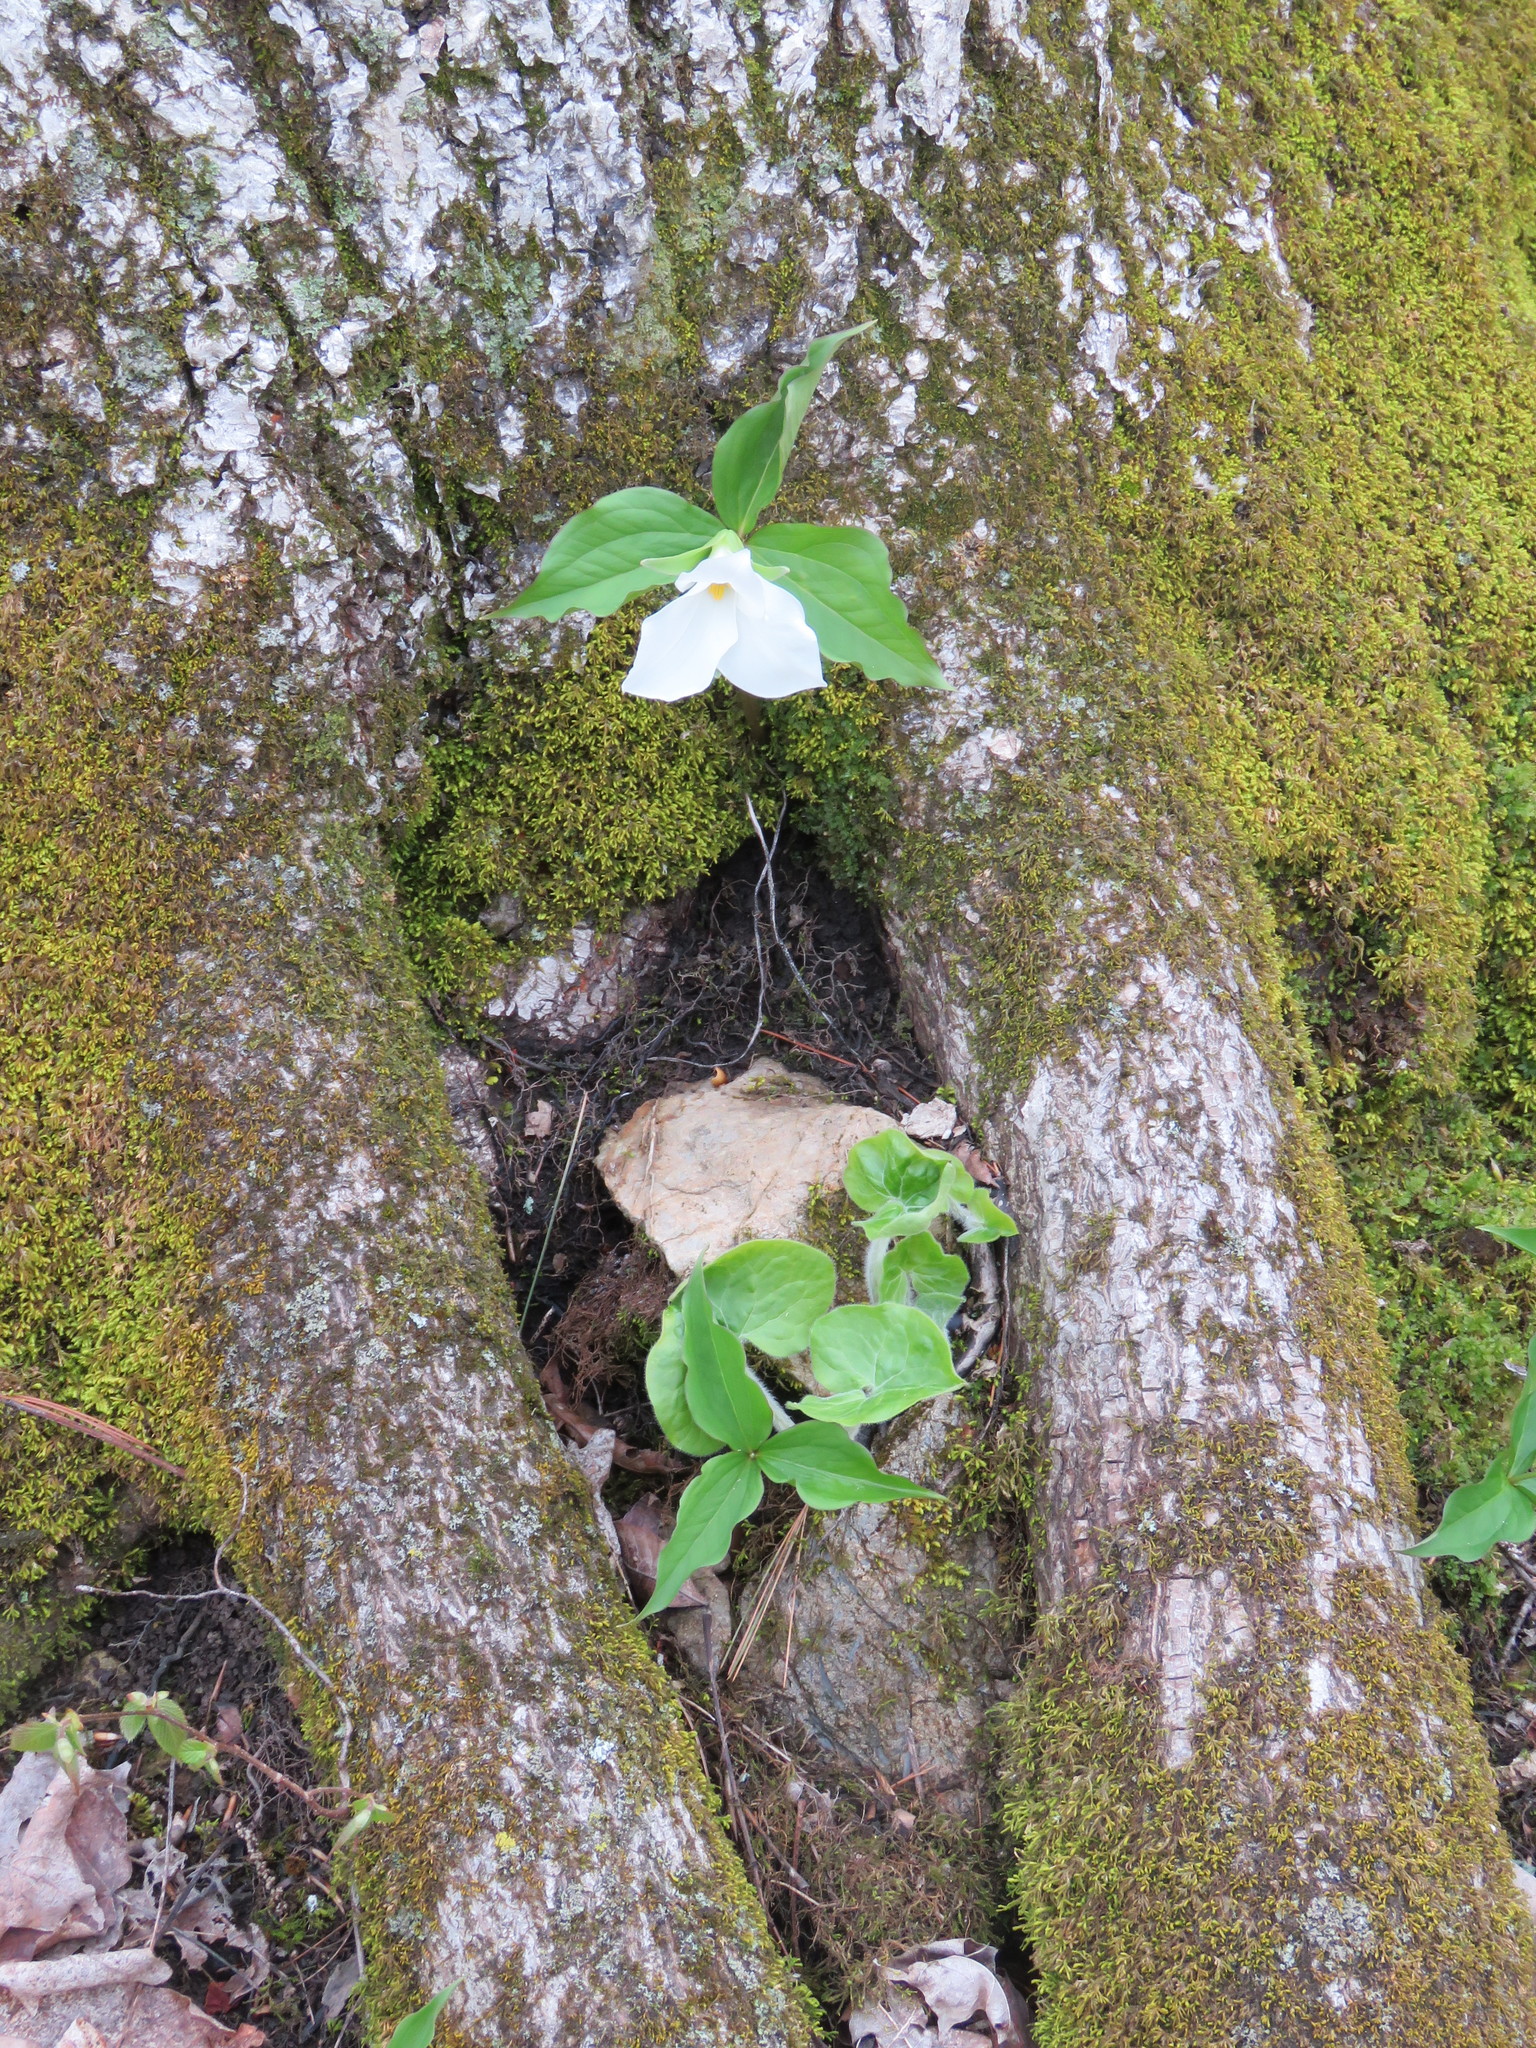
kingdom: Plantae
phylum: Tracheophyta
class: Liliopsida
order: Liliales
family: Melanthiaceae
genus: Trillium
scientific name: Trillium grandiflorum
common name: Great white trillium
